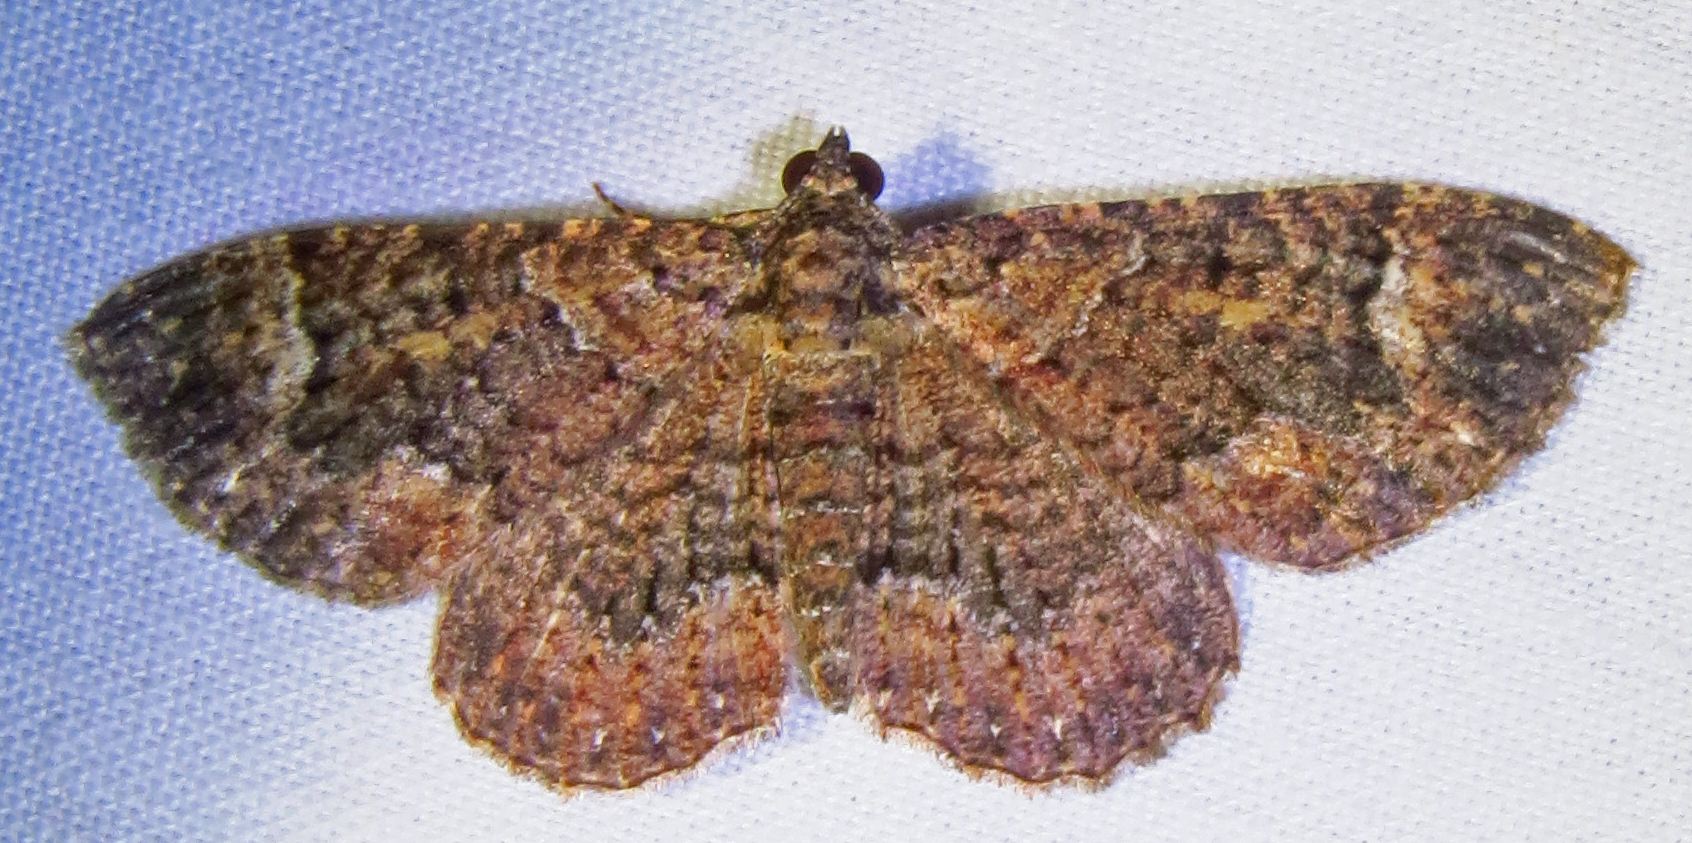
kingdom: Animalia
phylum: Arthropoda
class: Insecta
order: Lepidoptera
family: Geometridae
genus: Disclisioprocta
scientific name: Disclisioprocta stellata
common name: Somber carpet
